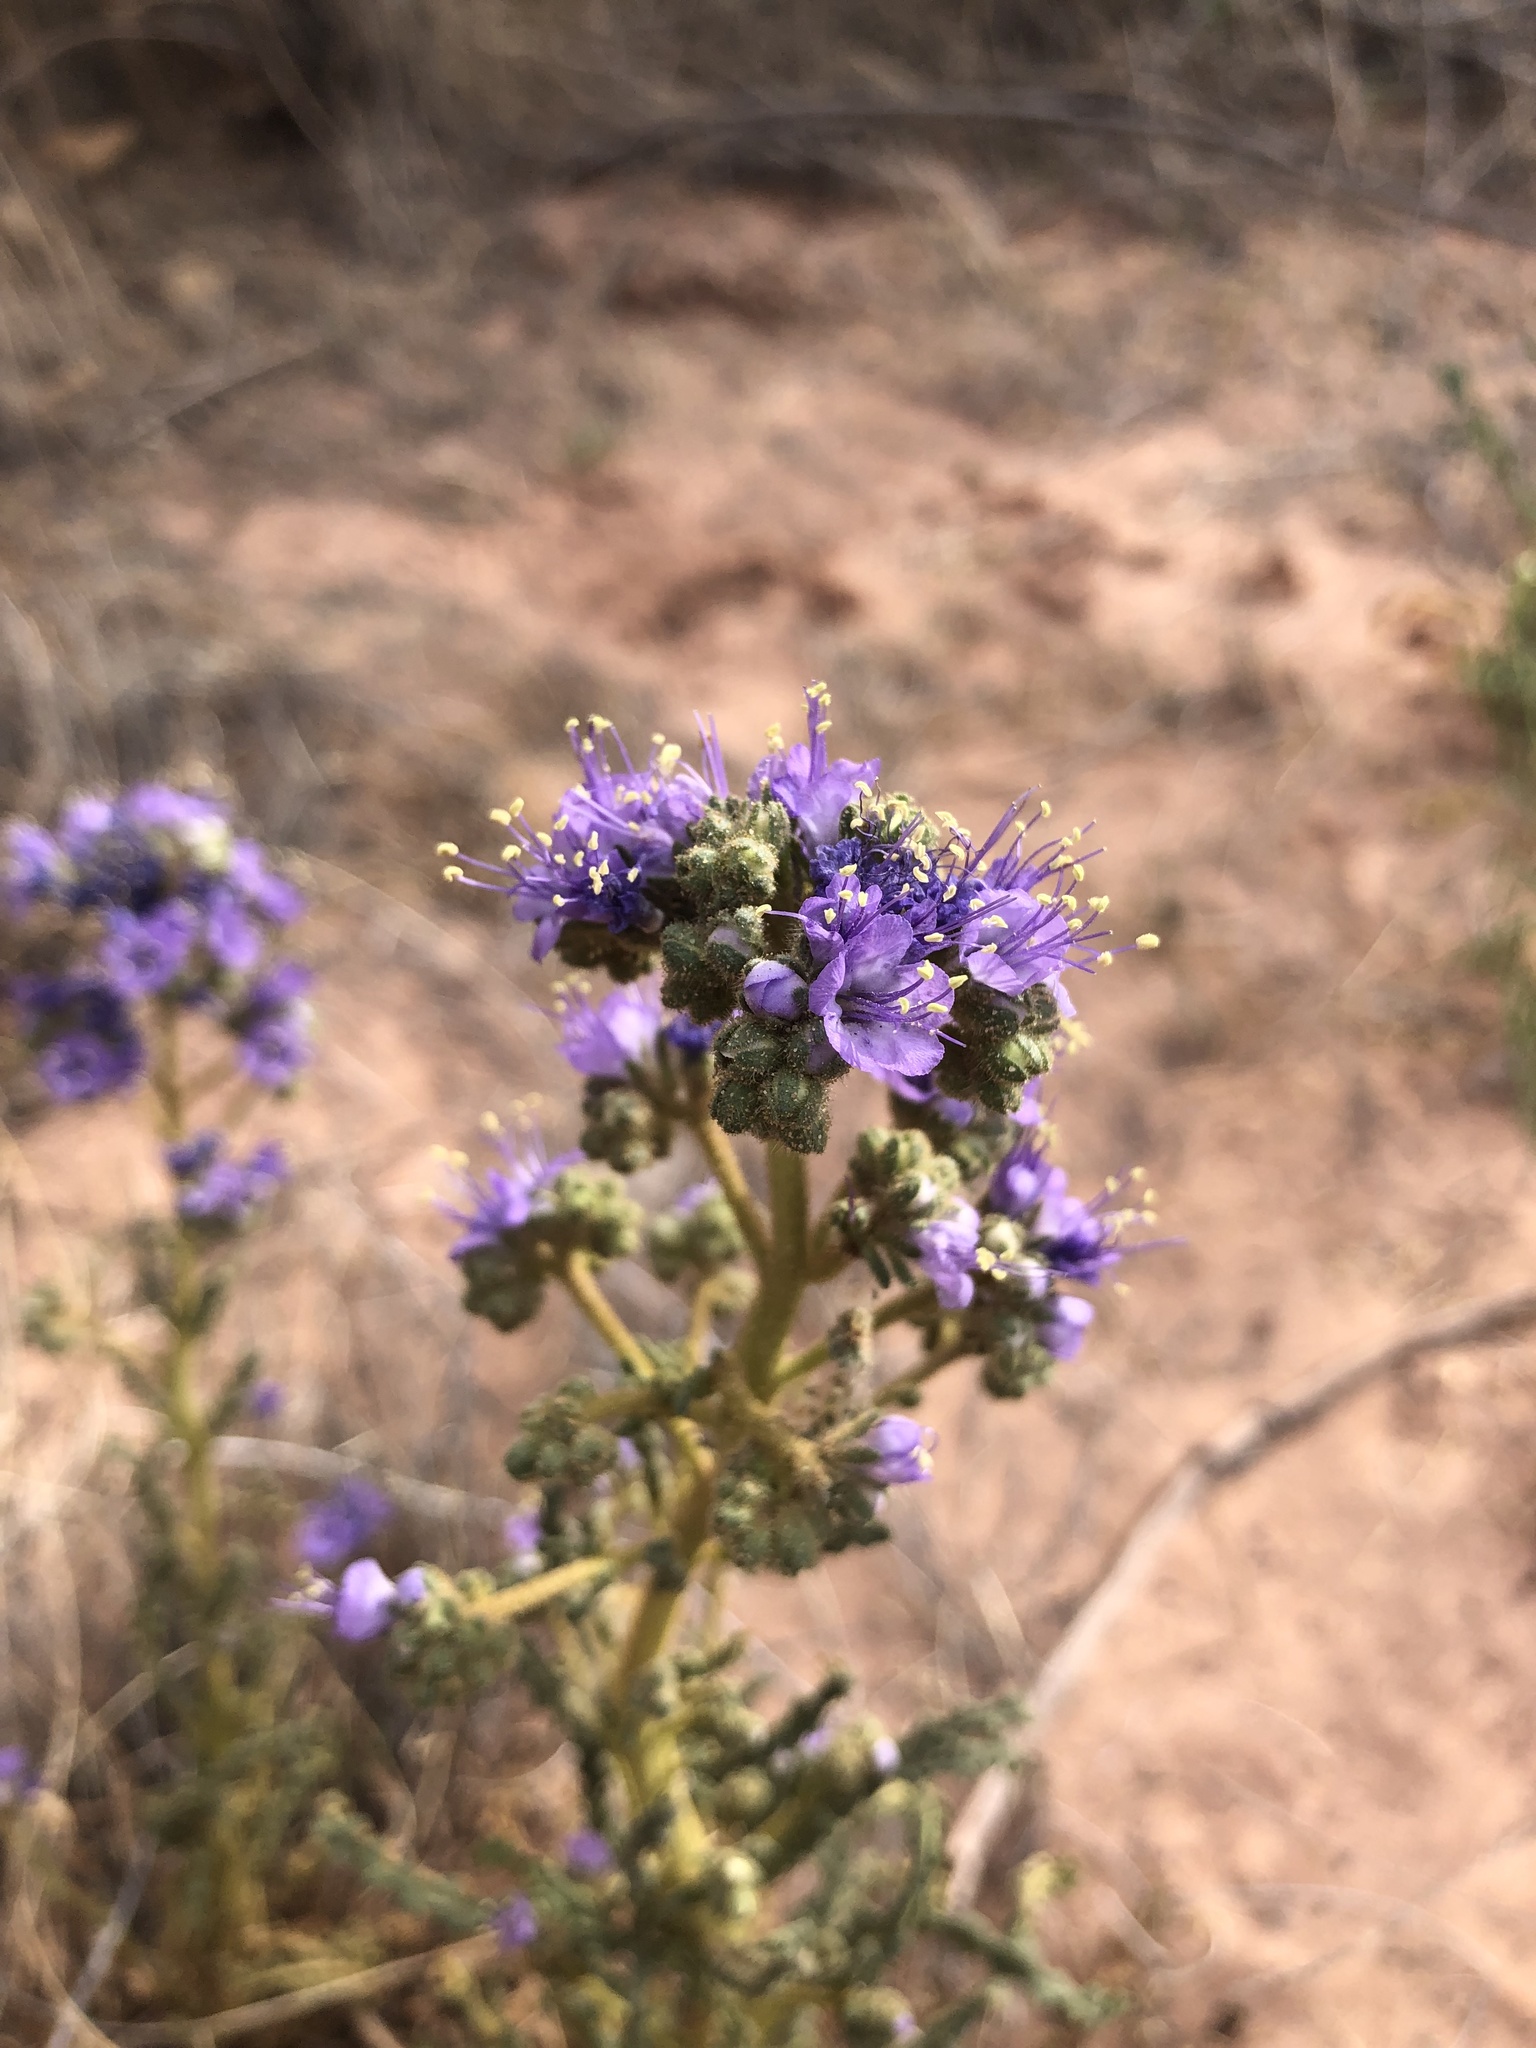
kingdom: Plantae
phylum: Tracheophyta
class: Magnoliopsida
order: Boraginales
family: Hydrophyllaceae
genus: Phacelia
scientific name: Phacelia corrugata
